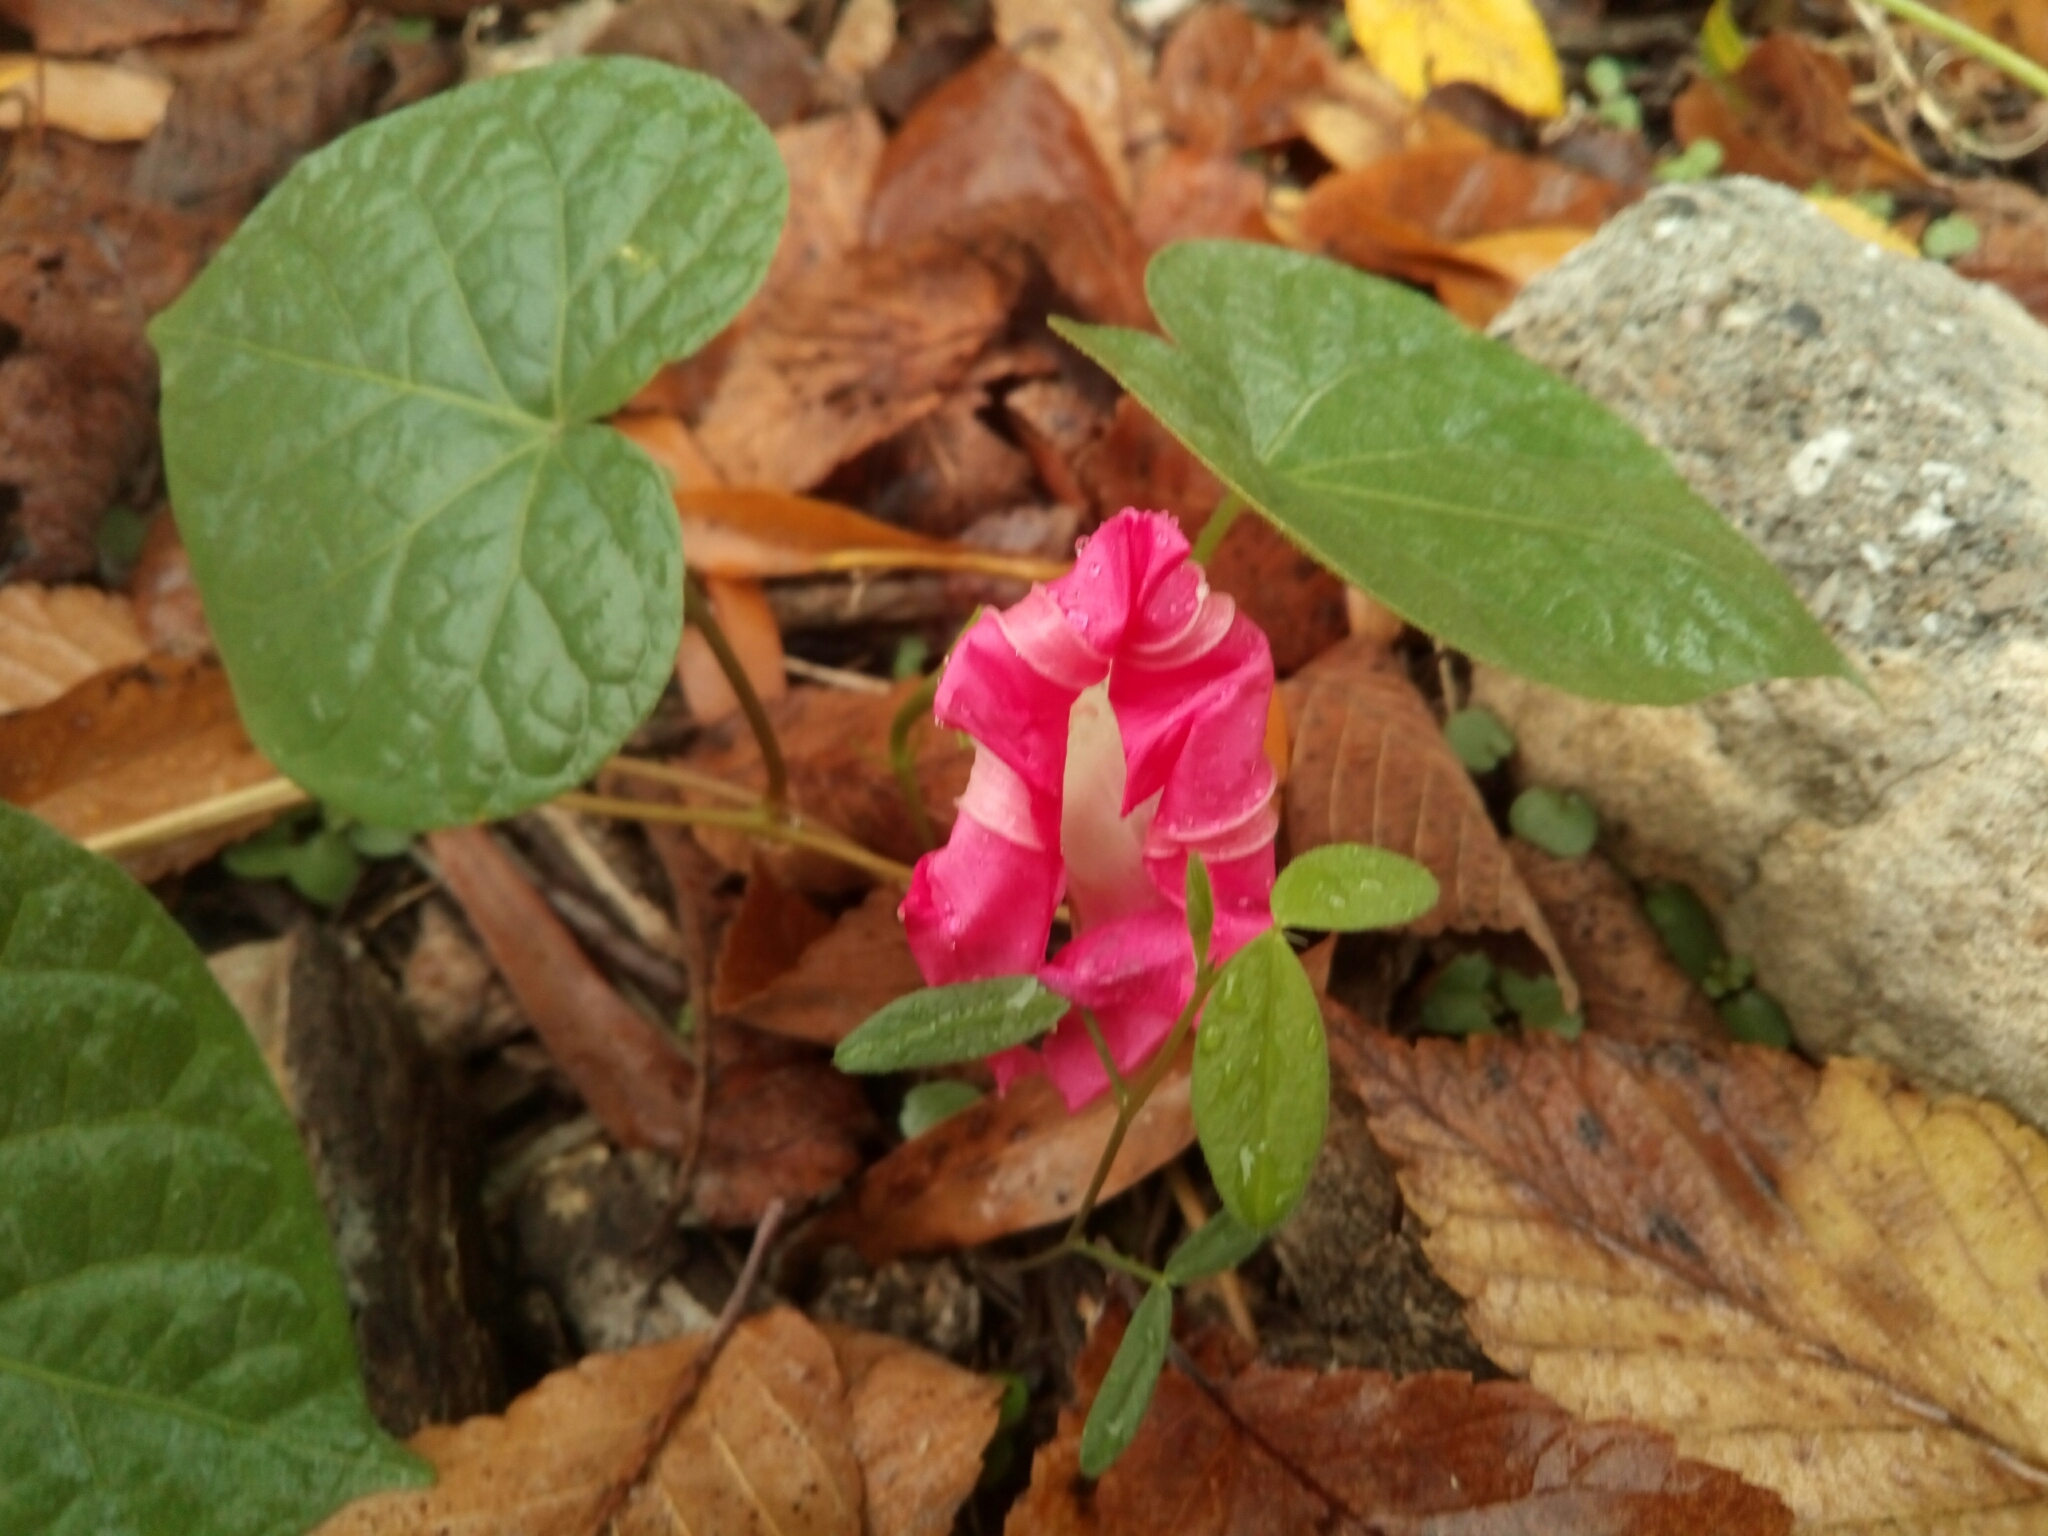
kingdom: Plantae
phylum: Tracheophyta
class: Magnoliopsida
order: Solanales
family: Convolvulaceae
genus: Ipomoea
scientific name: Ipomoea purpurea
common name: Common morning-glory
